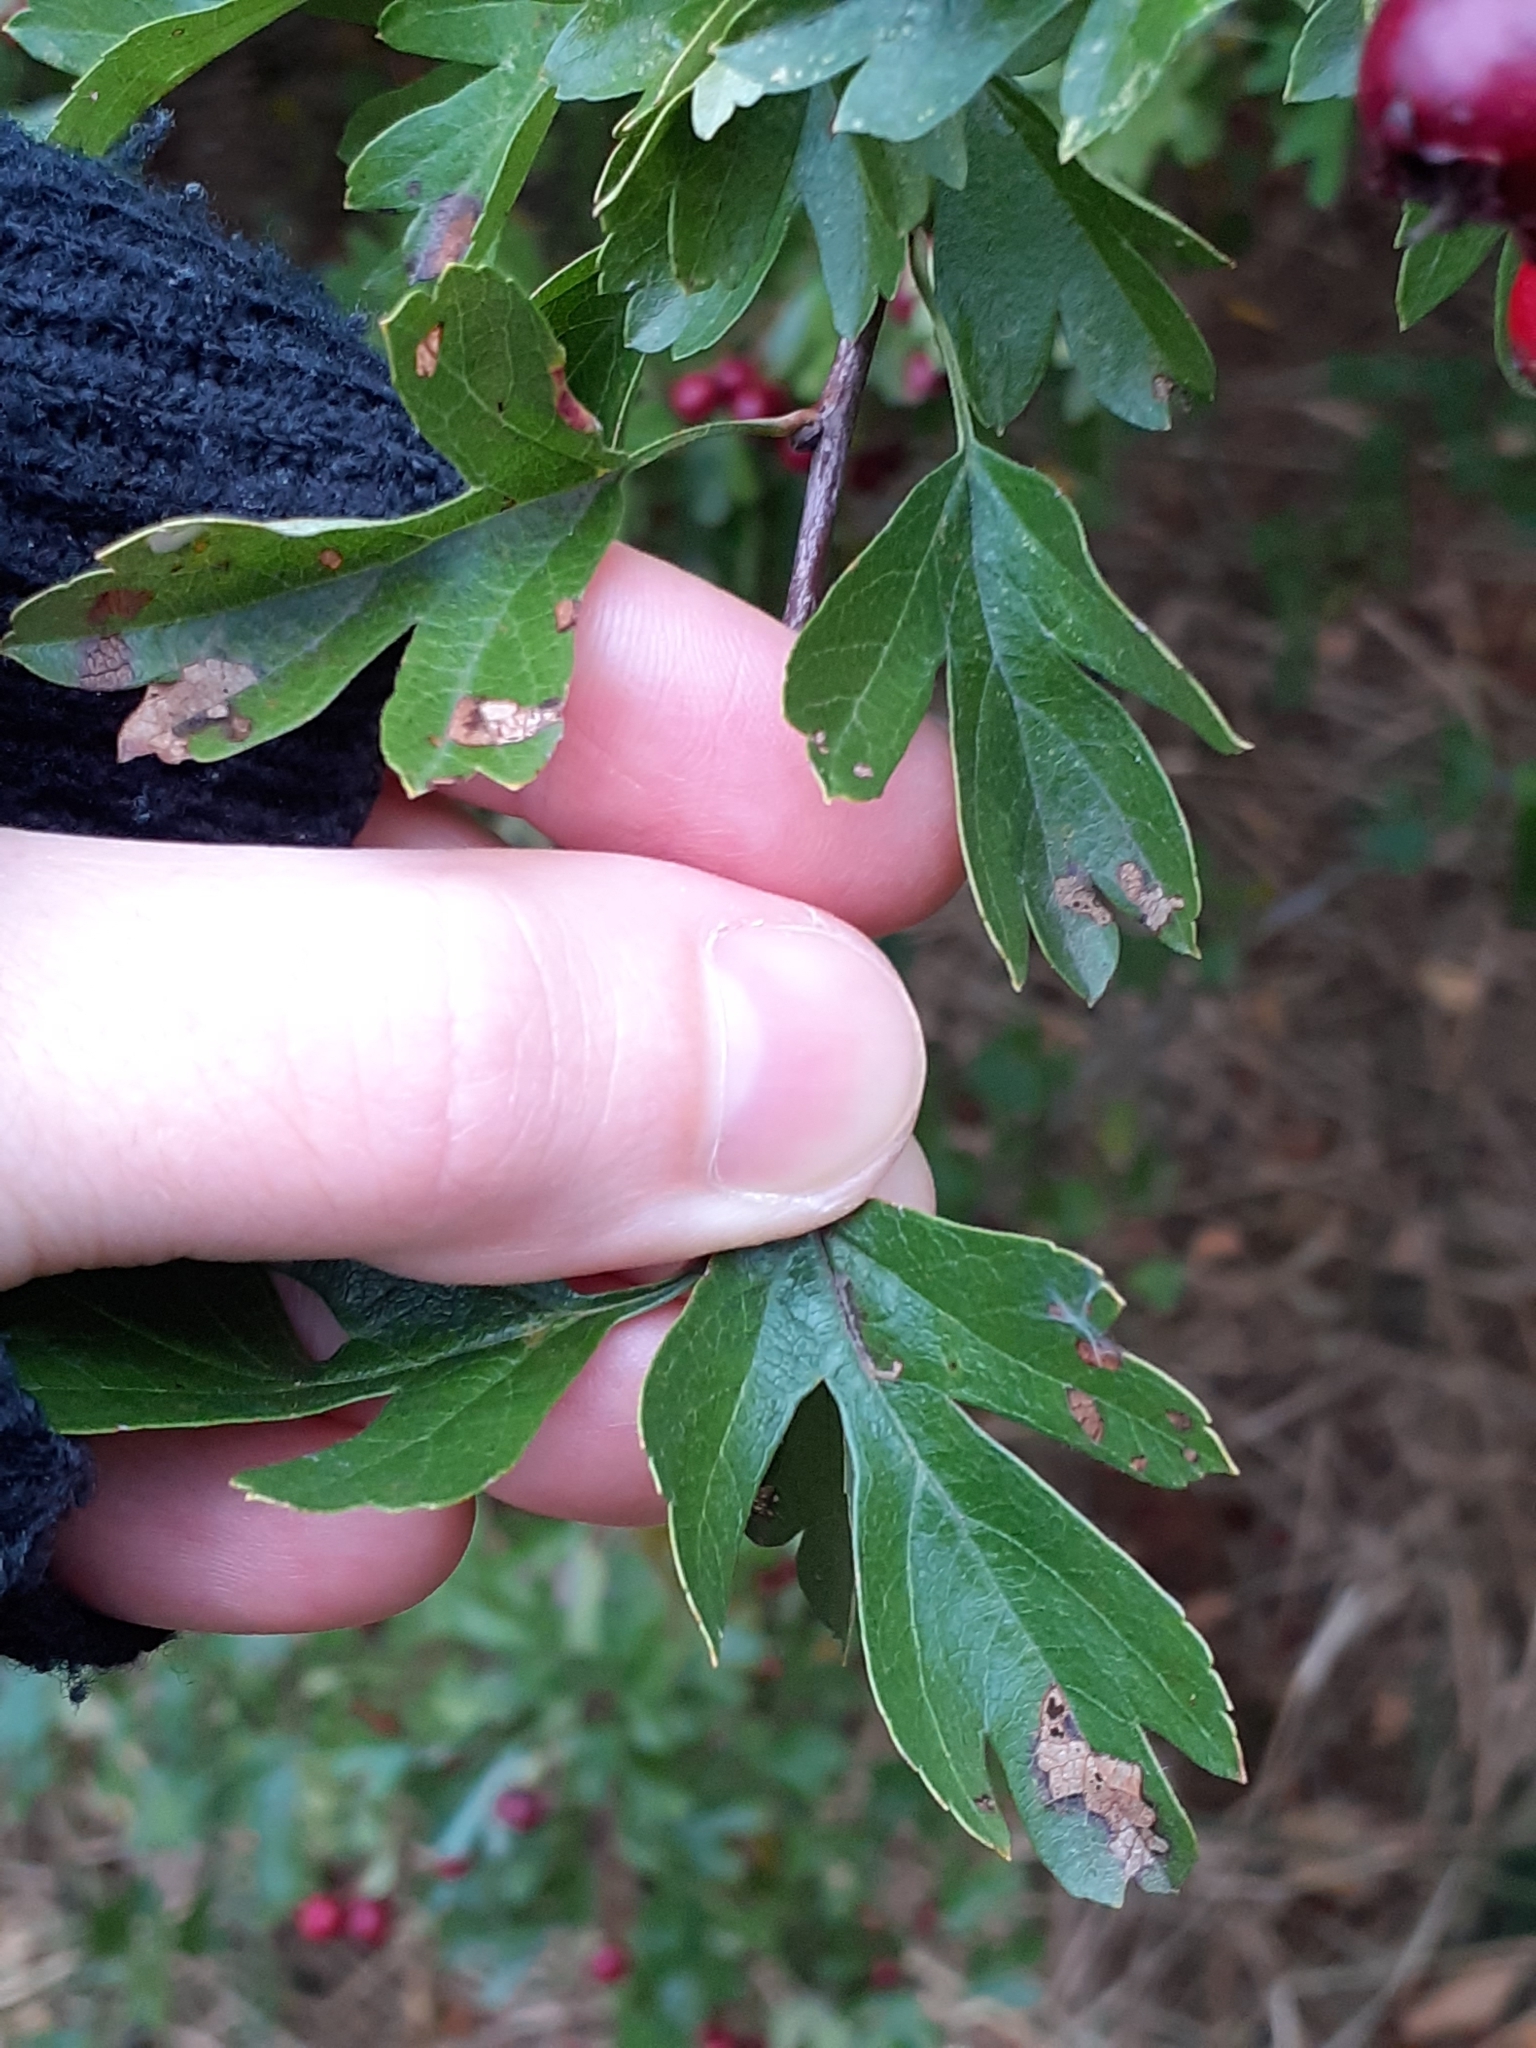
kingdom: Plantae
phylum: Tracheophyta
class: Magnoliopsida
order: Rosales
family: Rosaceae
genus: Crataegus
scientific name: Crataegus monogyna
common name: Hawthorn
